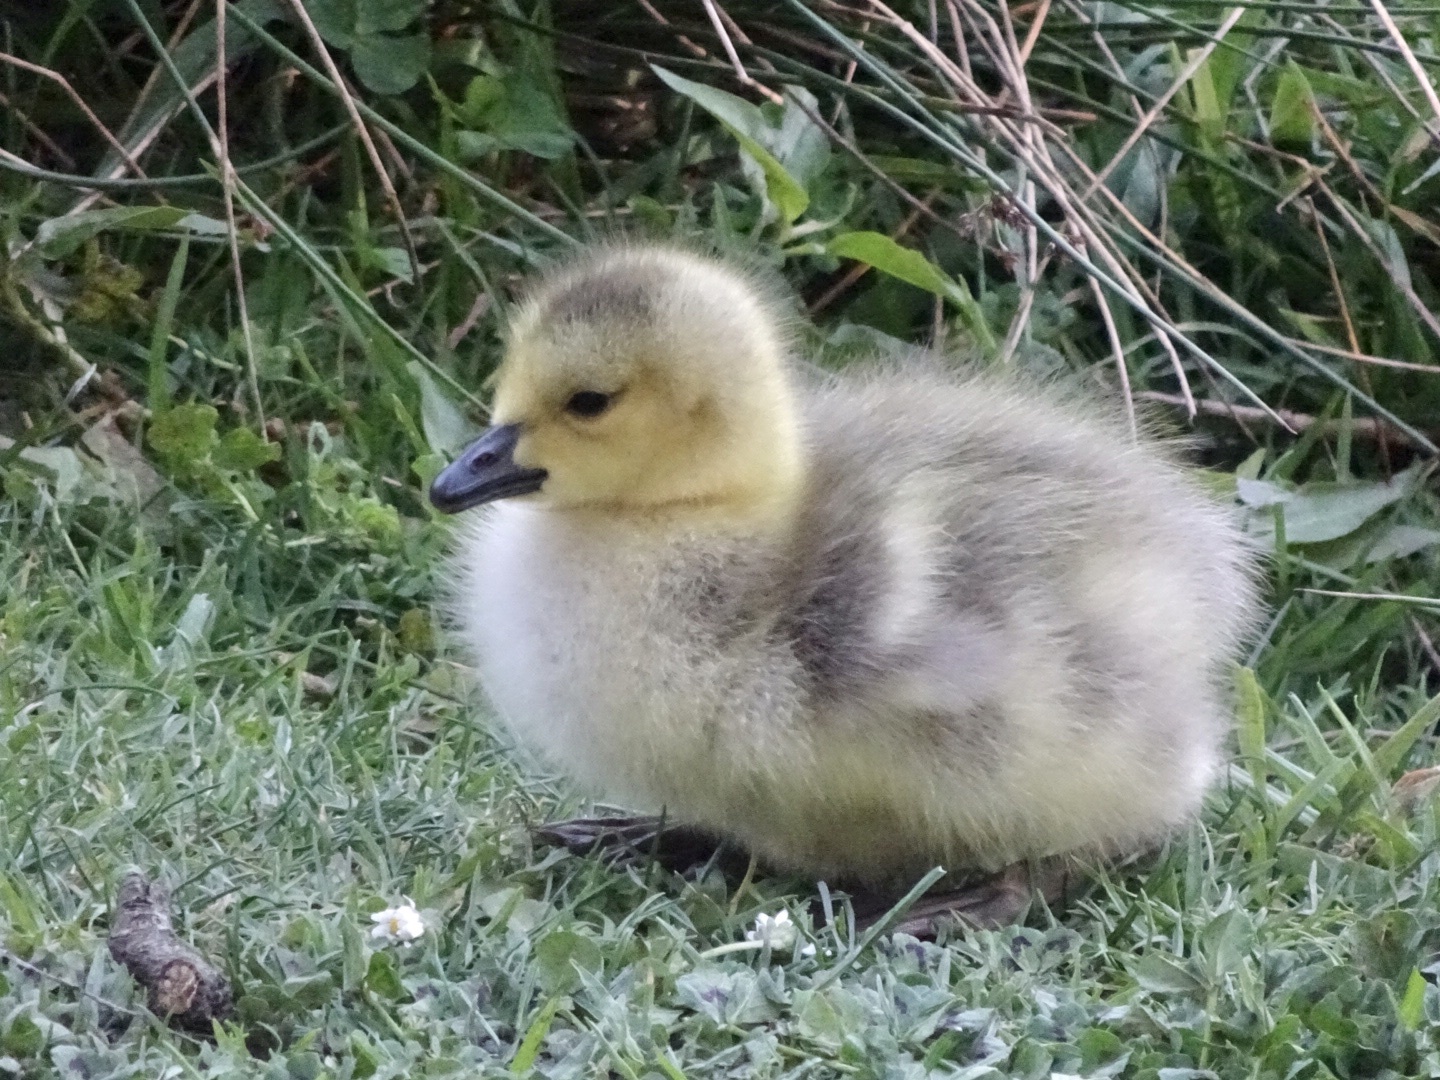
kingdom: Animalia
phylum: Chordata
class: Aves
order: Anseriformes
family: Anatidae
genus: Branta
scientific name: Branta canadensis
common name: Canada goose
